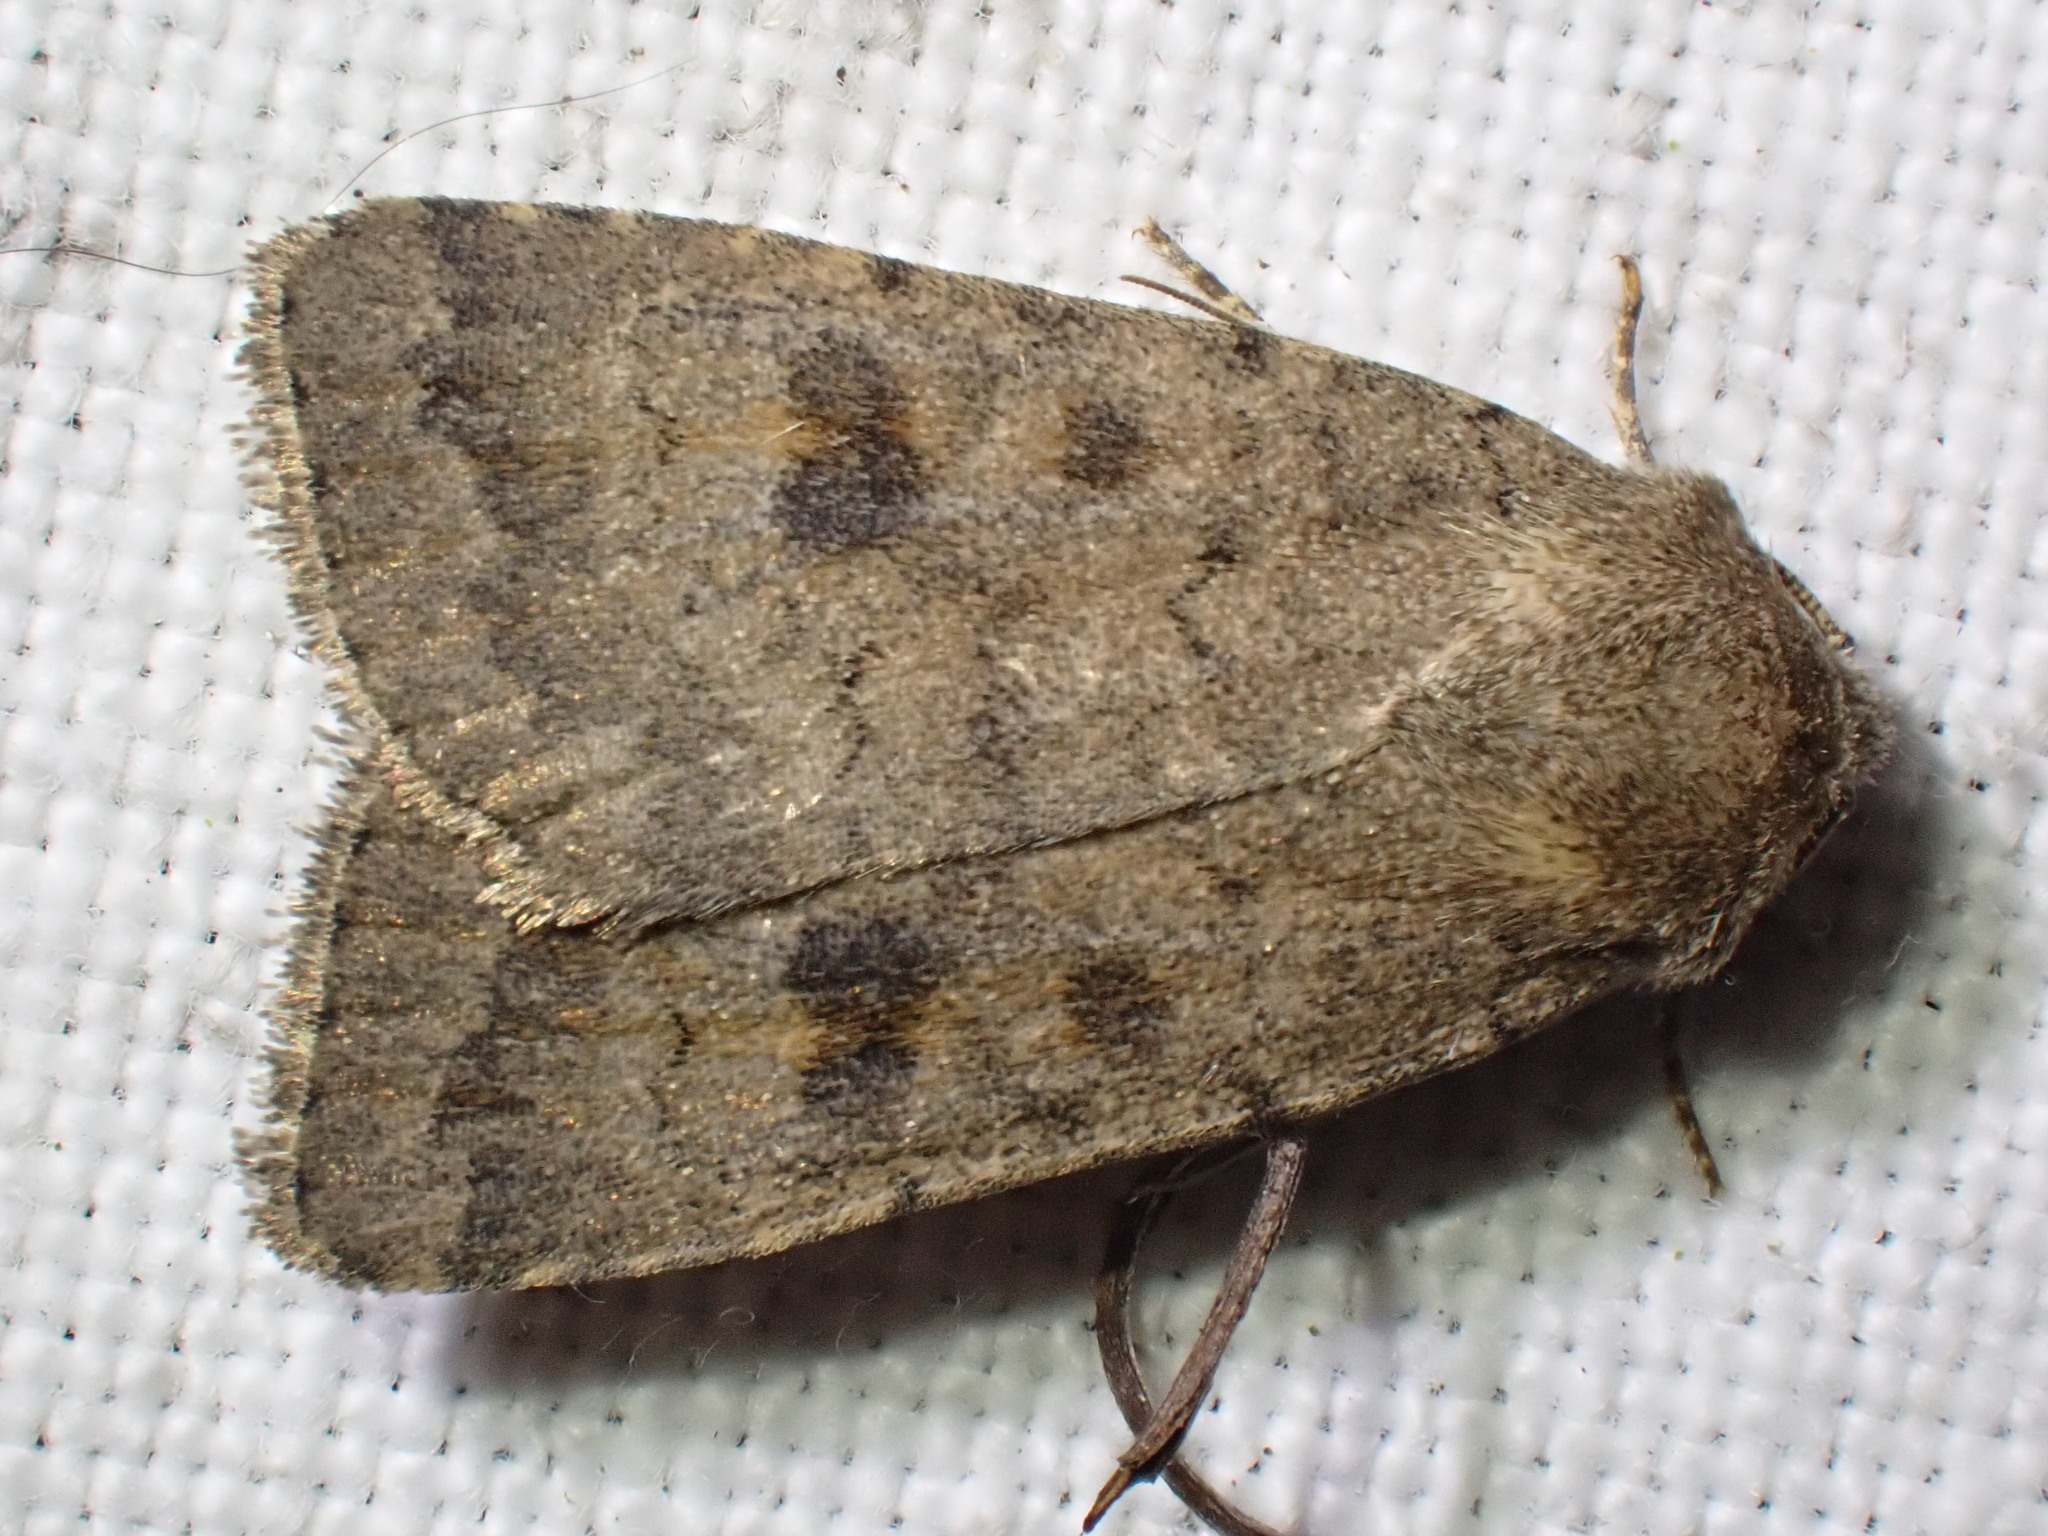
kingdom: Animalia
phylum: Arthropoda
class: Insecta
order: Lepidoptera
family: Noctuidae
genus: Caradrina
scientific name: Caradrina morpheus
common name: Mottled rustic
